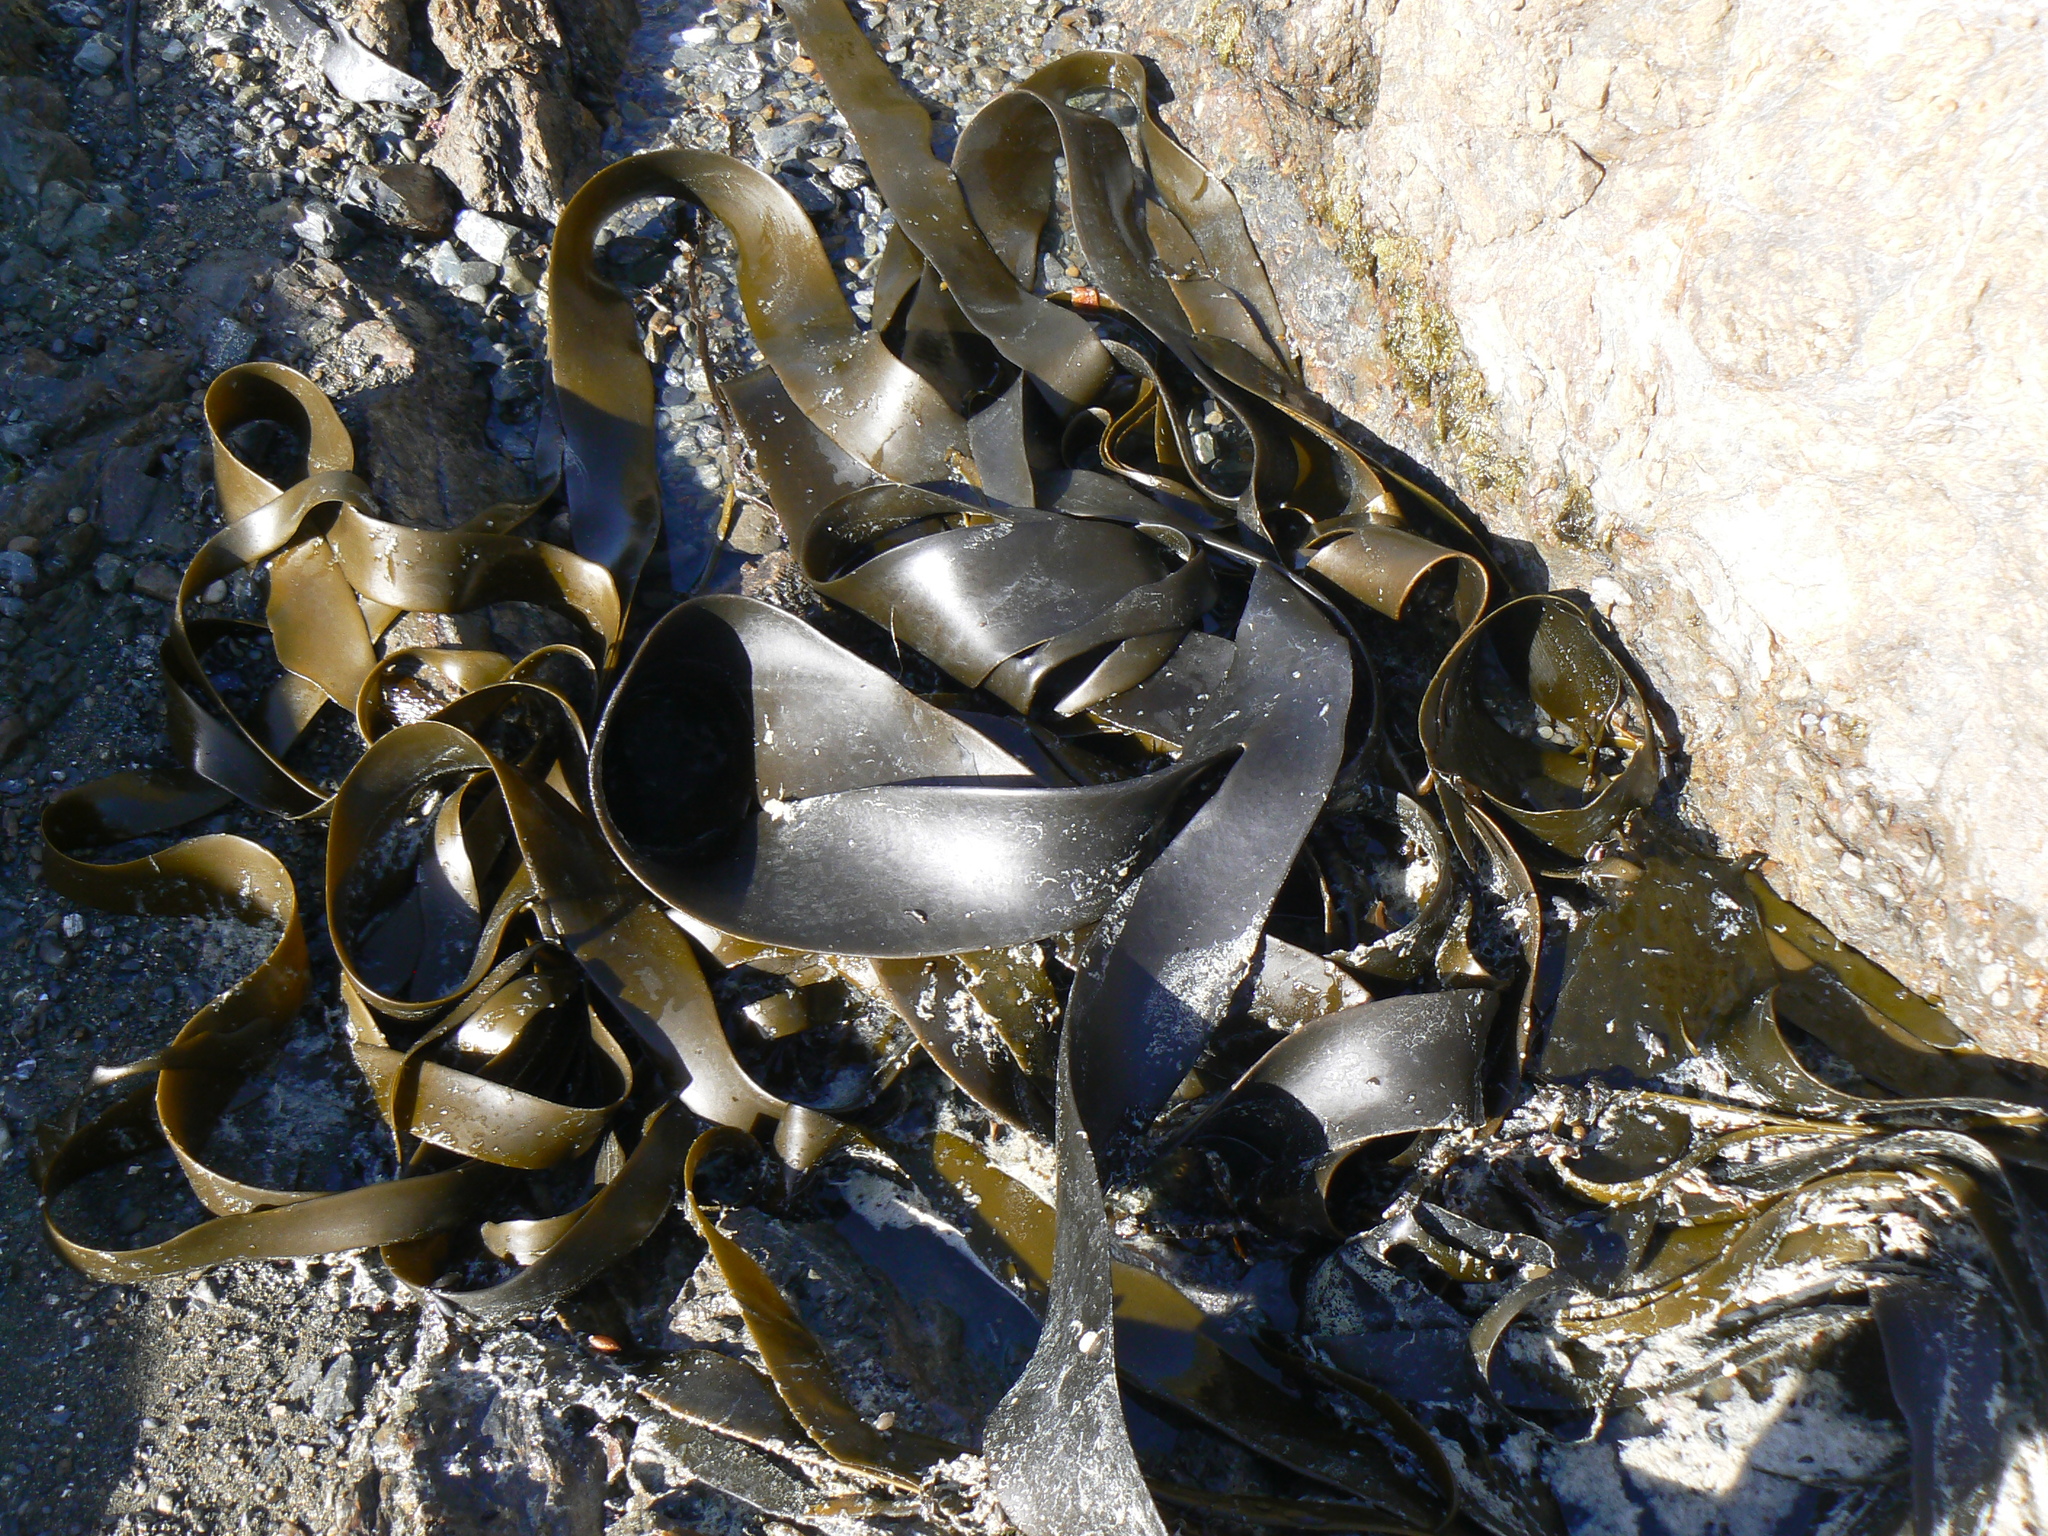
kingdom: Chromista
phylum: Ochrophyta
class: Phaeophyceae
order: Fucales
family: Durvillaeaceae
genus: Durvillaea
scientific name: Durvillaea antarctica
